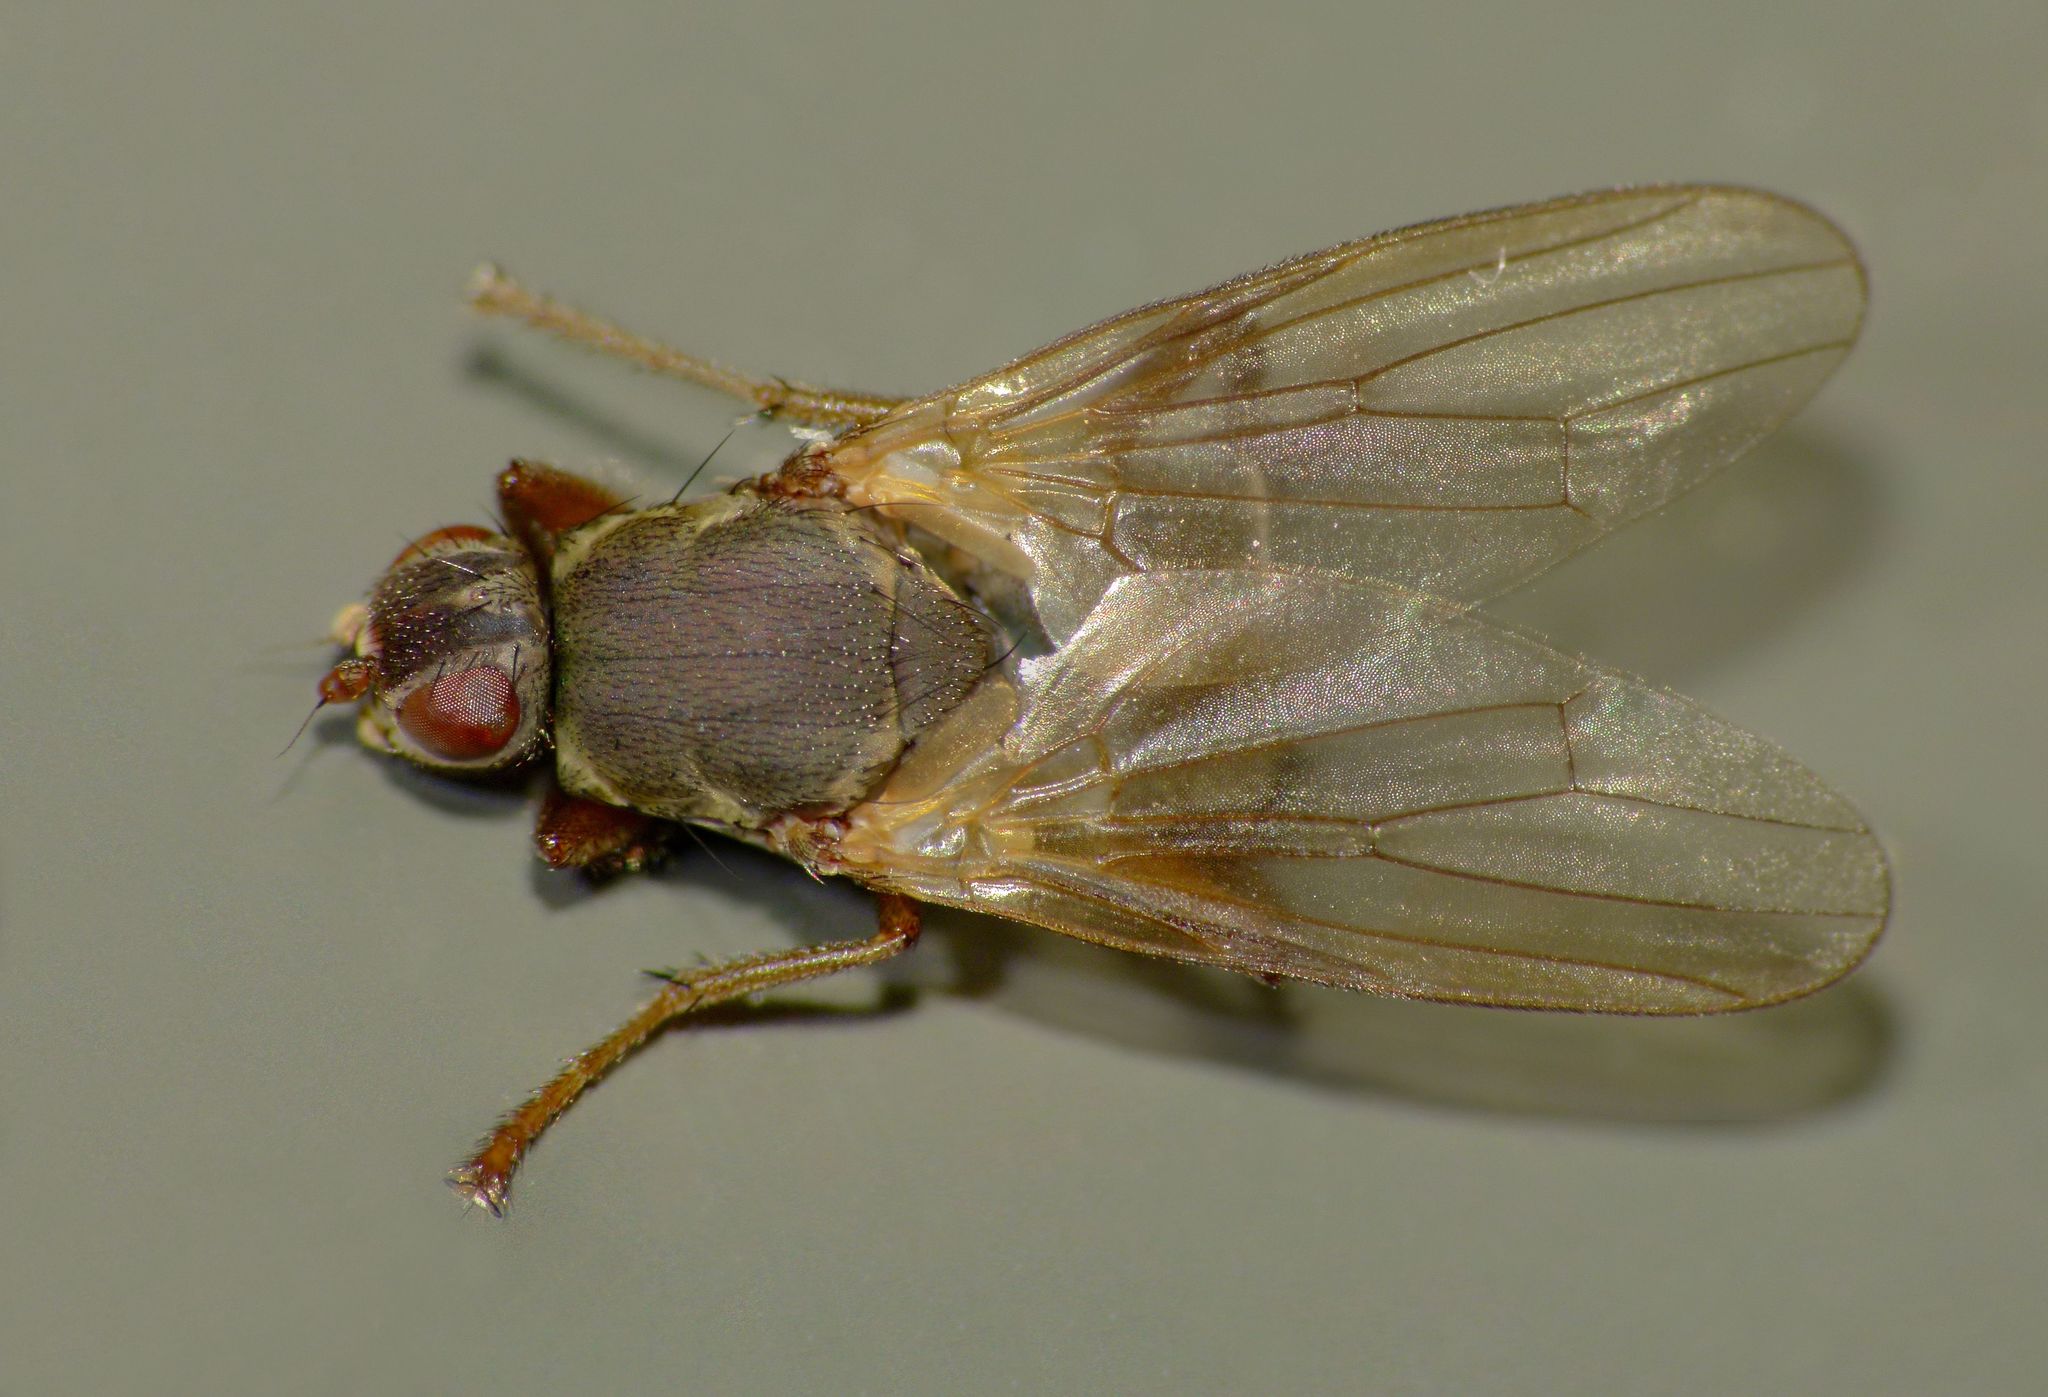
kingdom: Animalia
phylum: Arthropoda
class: Insecta
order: Diptera
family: Coelopidae
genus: Coelopella
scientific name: Coelopella curvipes
